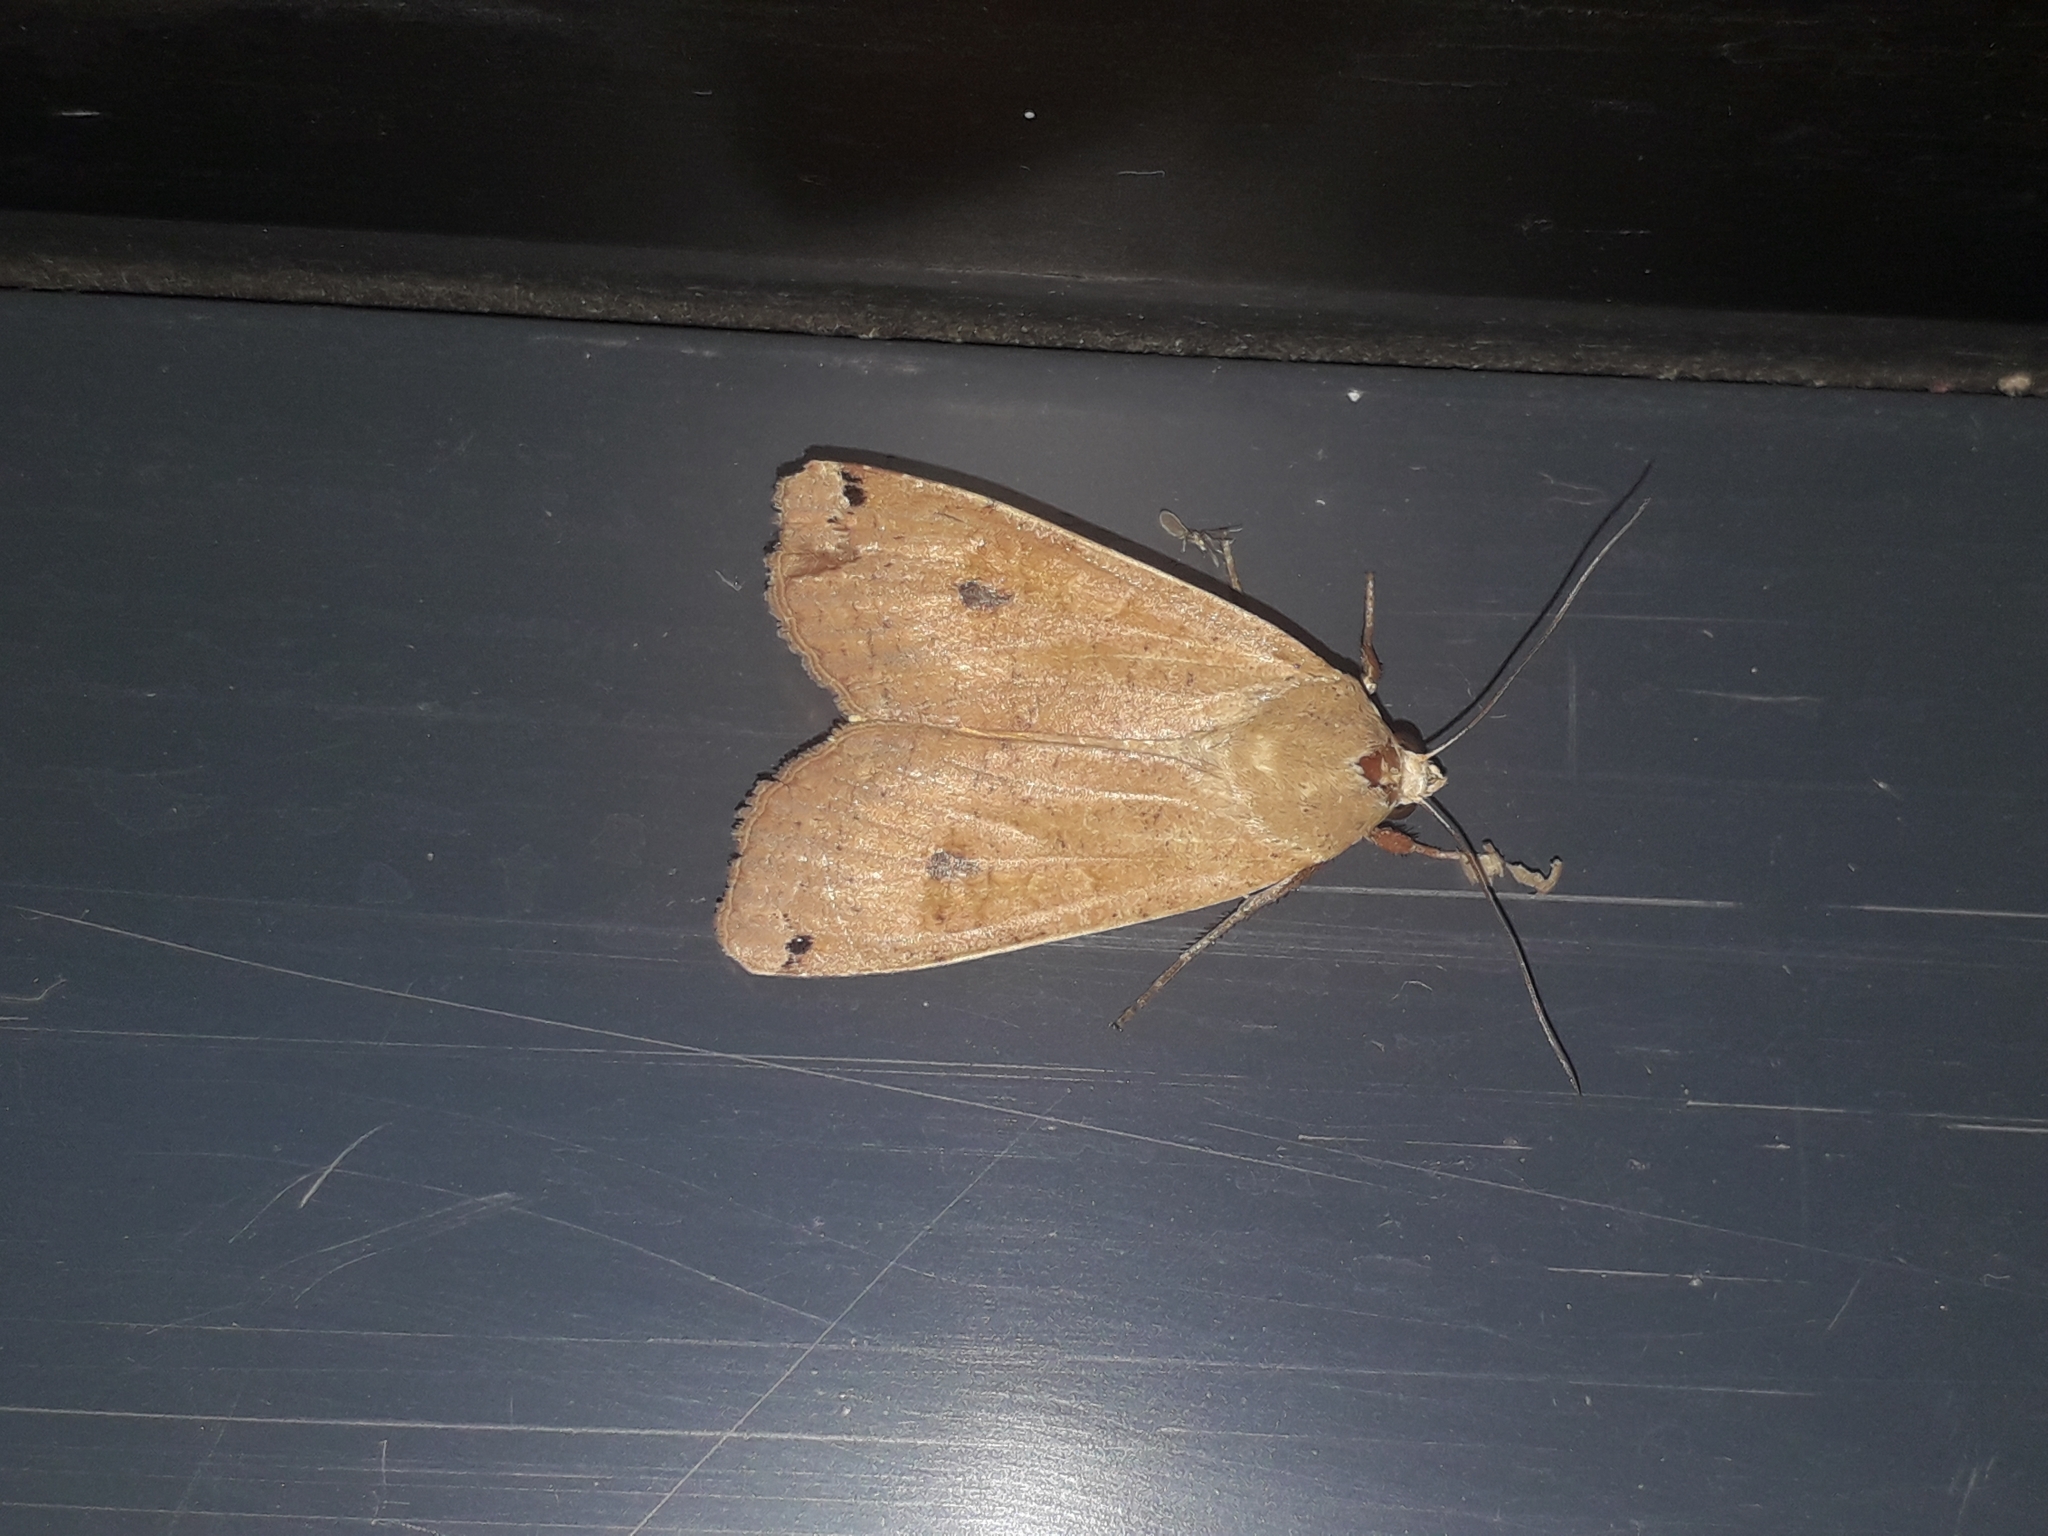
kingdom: Animalia
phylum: Arthropoda
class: Insecta
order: Lepidoptera
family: Noctuidae
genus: Noctua
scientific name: Noctua pronuba
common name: Large yellow underwing
